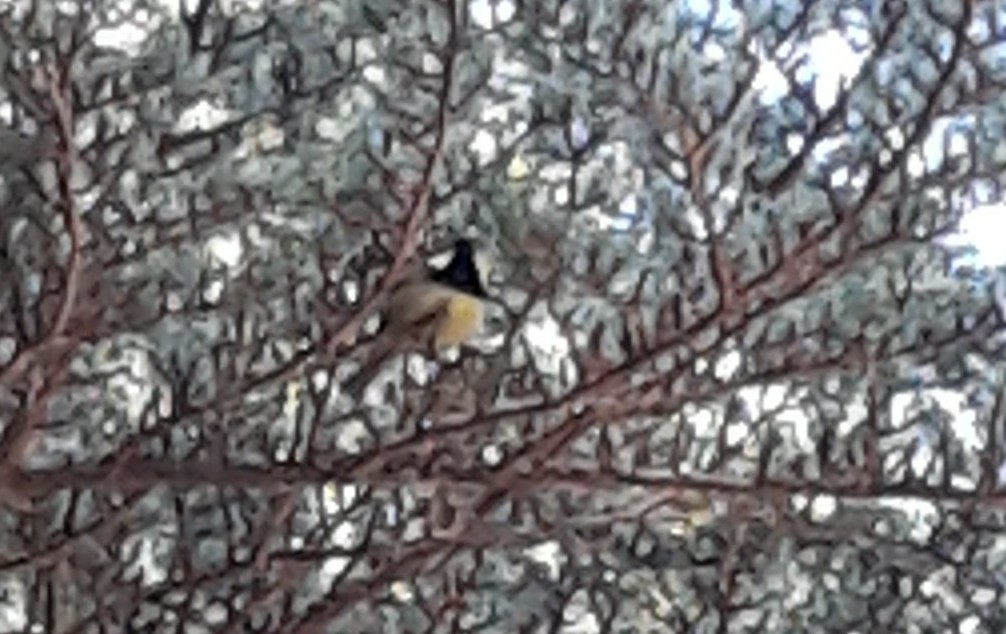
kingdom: Animalia
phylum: Chordata
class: Aves
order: Passeriformes
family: Paridae
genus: Periparus
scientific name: Periparus ater
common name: Coal tit
